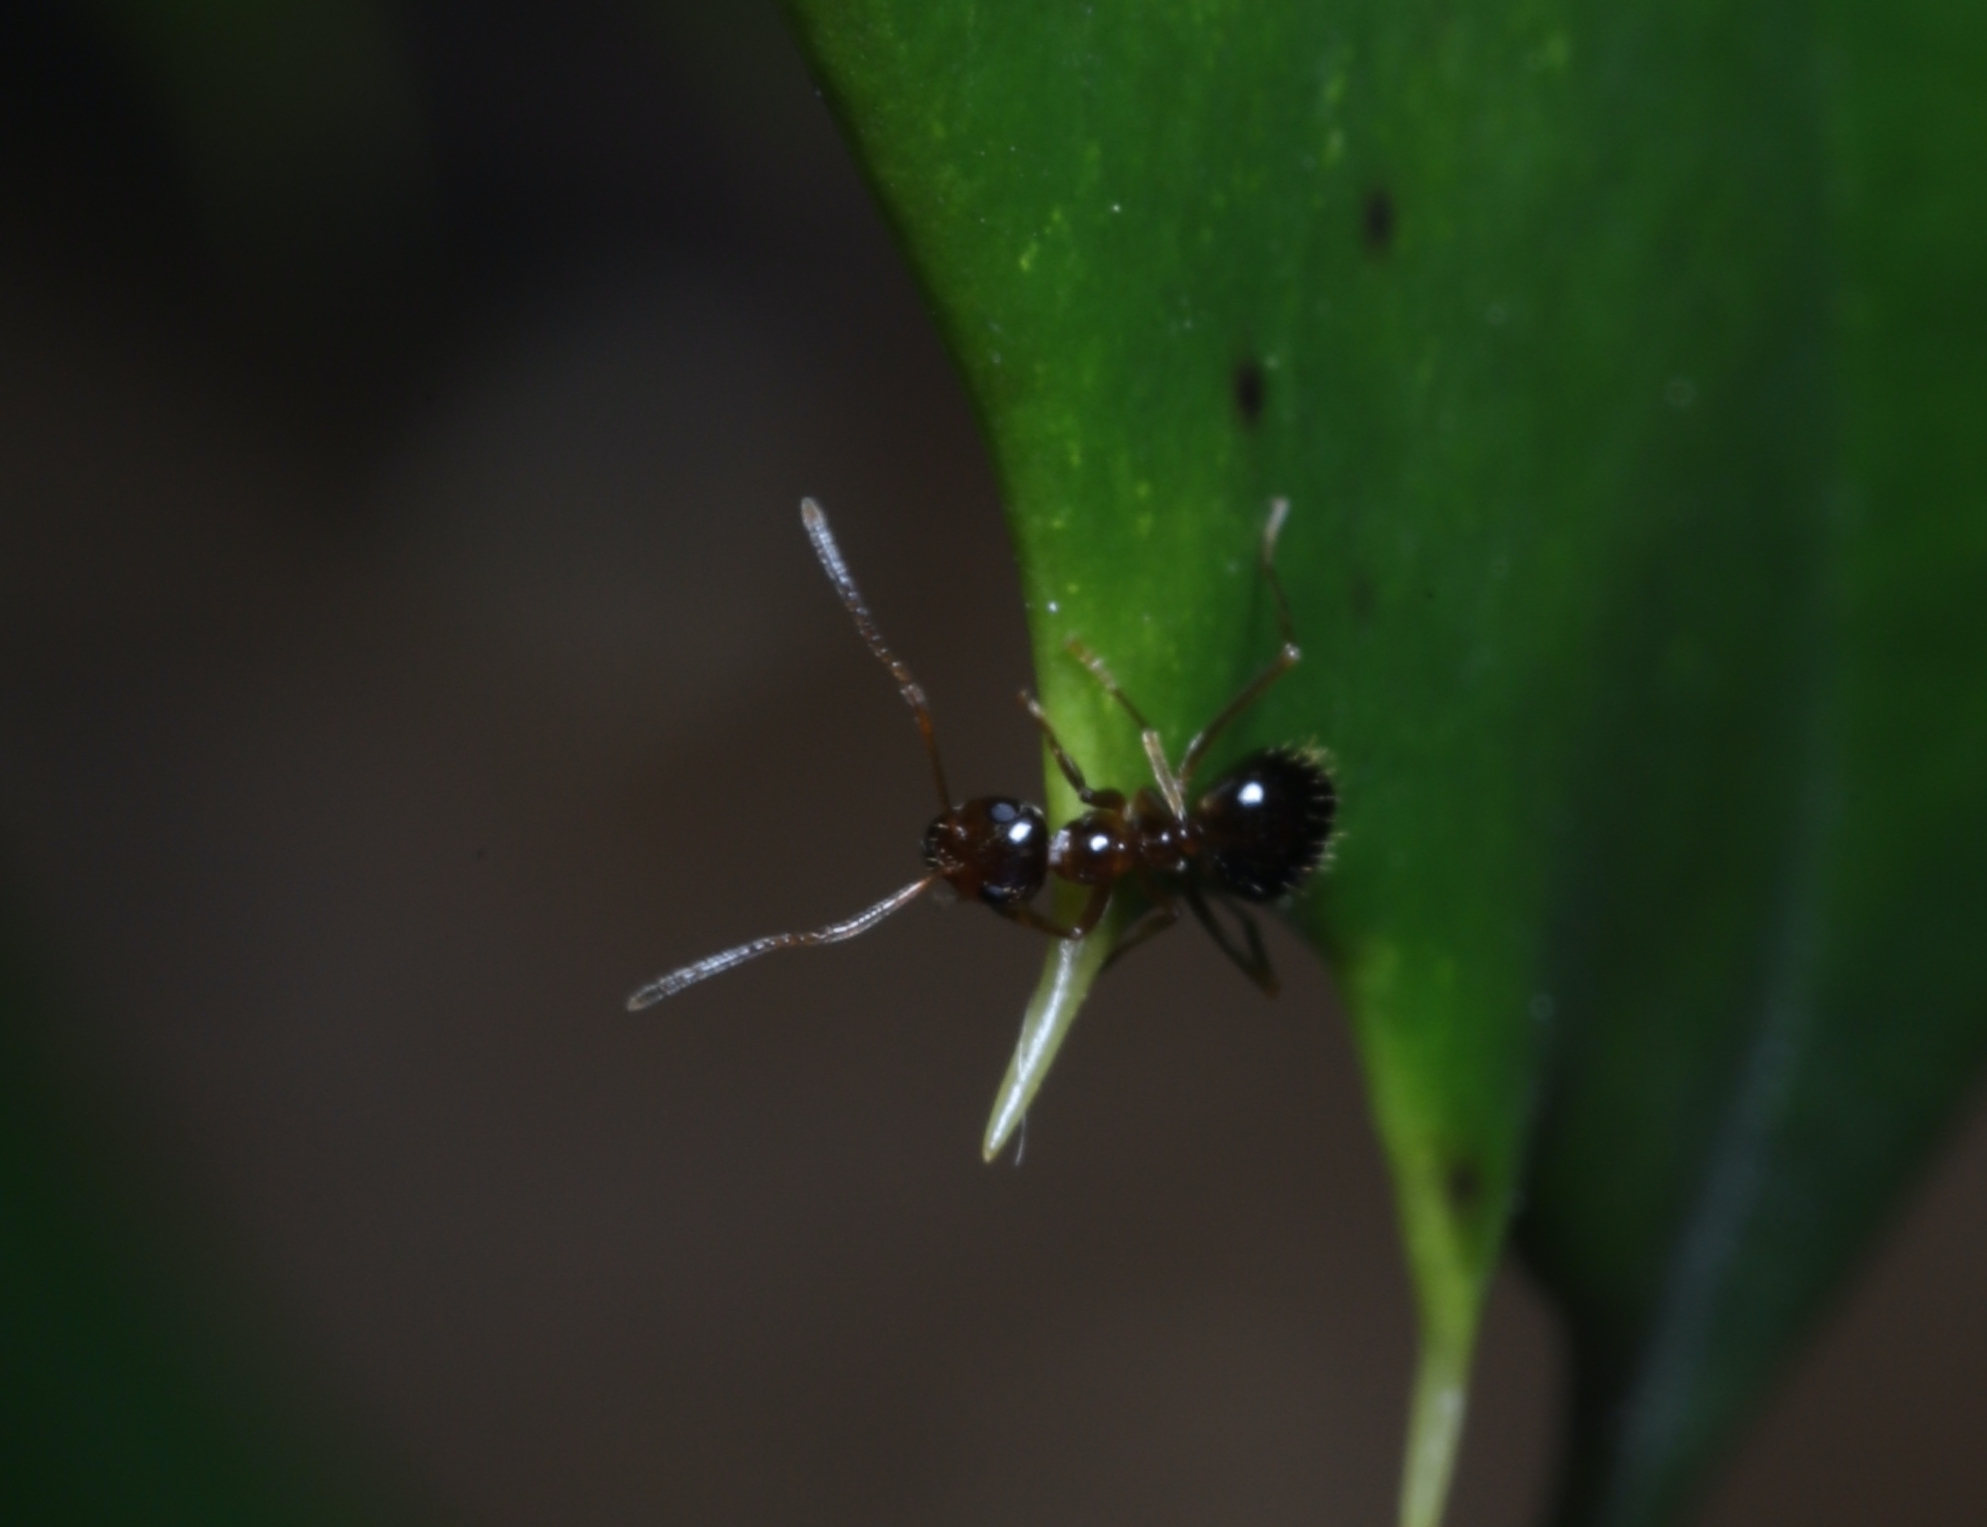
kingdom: Animalia
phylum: Arthropoda
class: Insecta
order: Hymenoptera
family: Formicidae
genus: Prenolepis
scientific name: Prenolepis imparis
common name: Small honey ant
